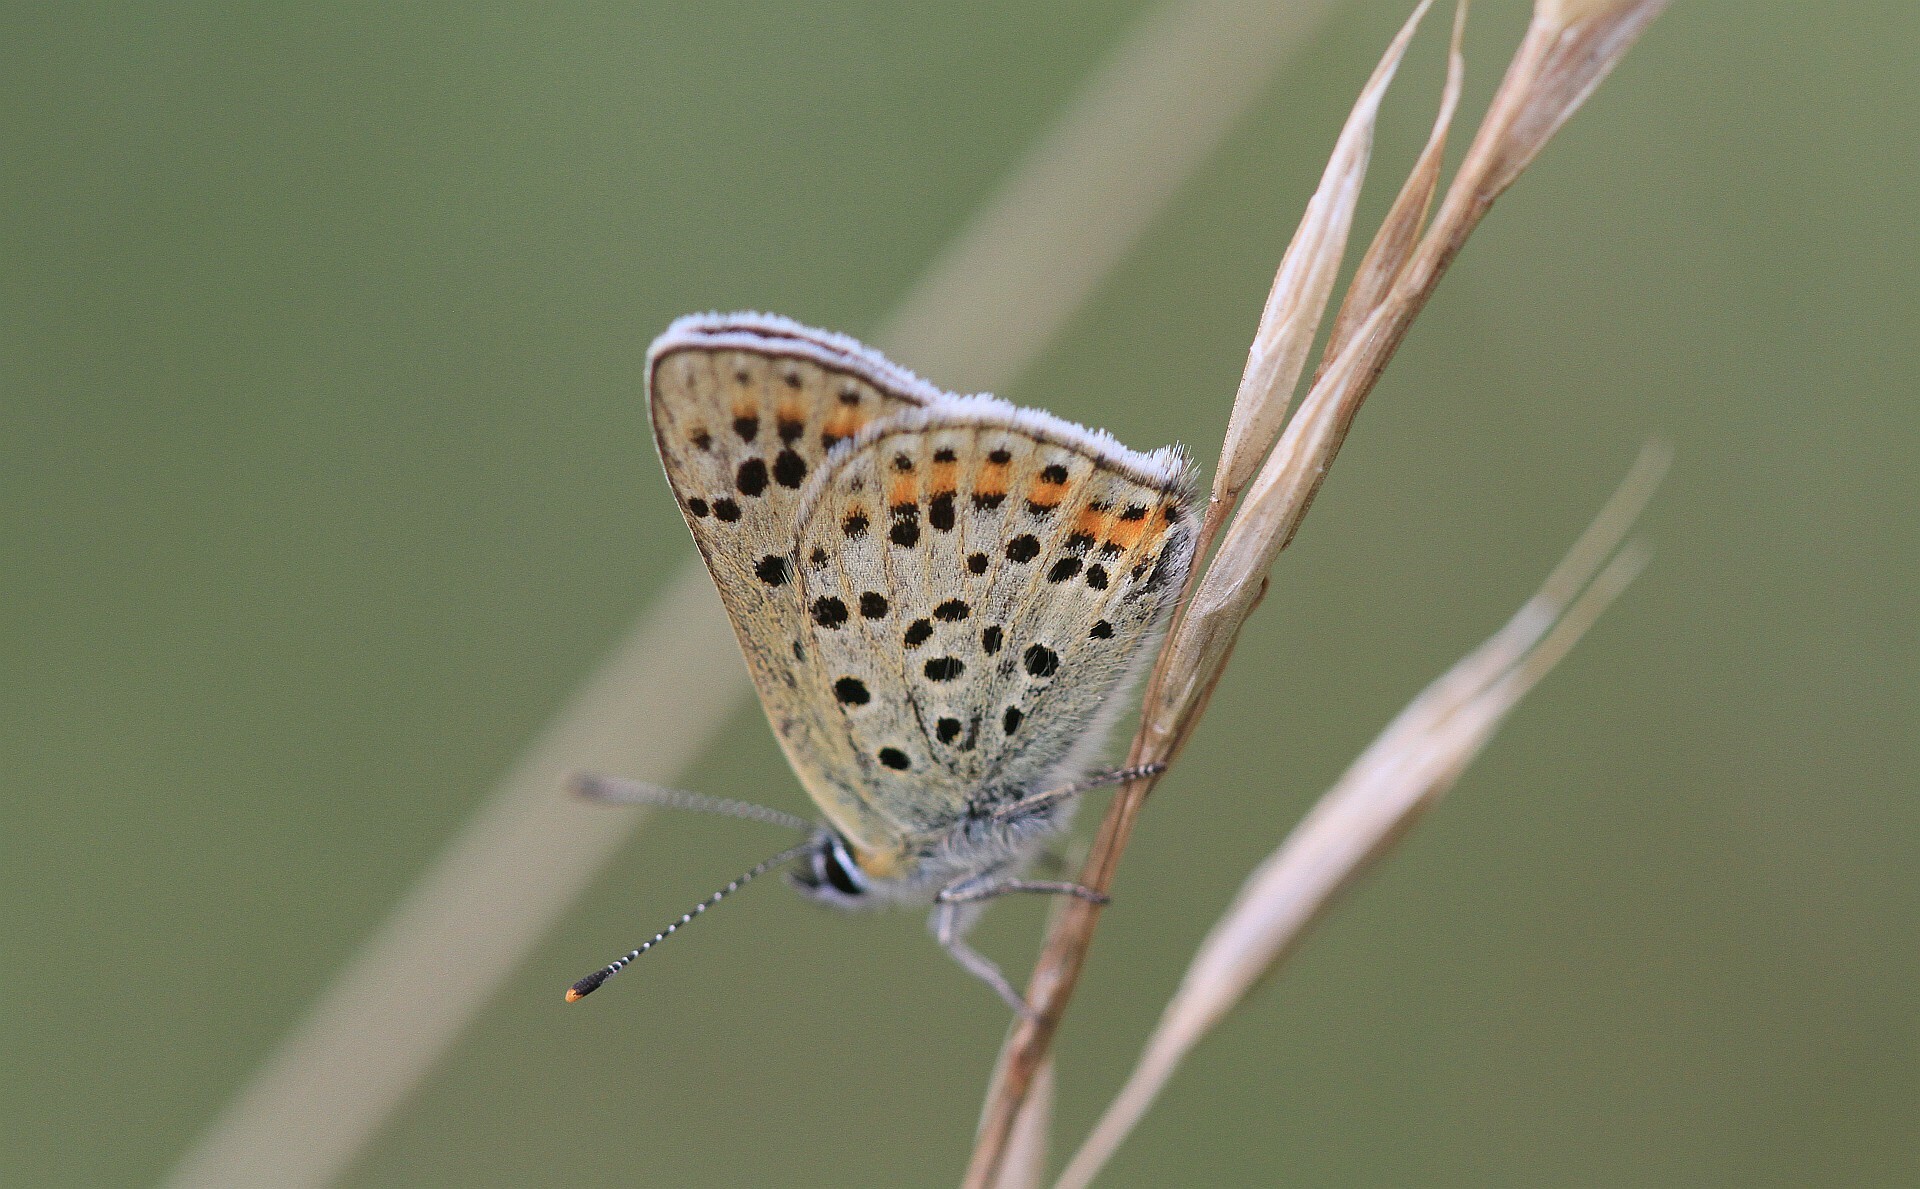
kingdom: Animalia
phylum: Arthropoda
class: Insecta
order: Lepidoptera
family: Lycaenidae
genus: Loweia
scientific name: Loweia tityrus
